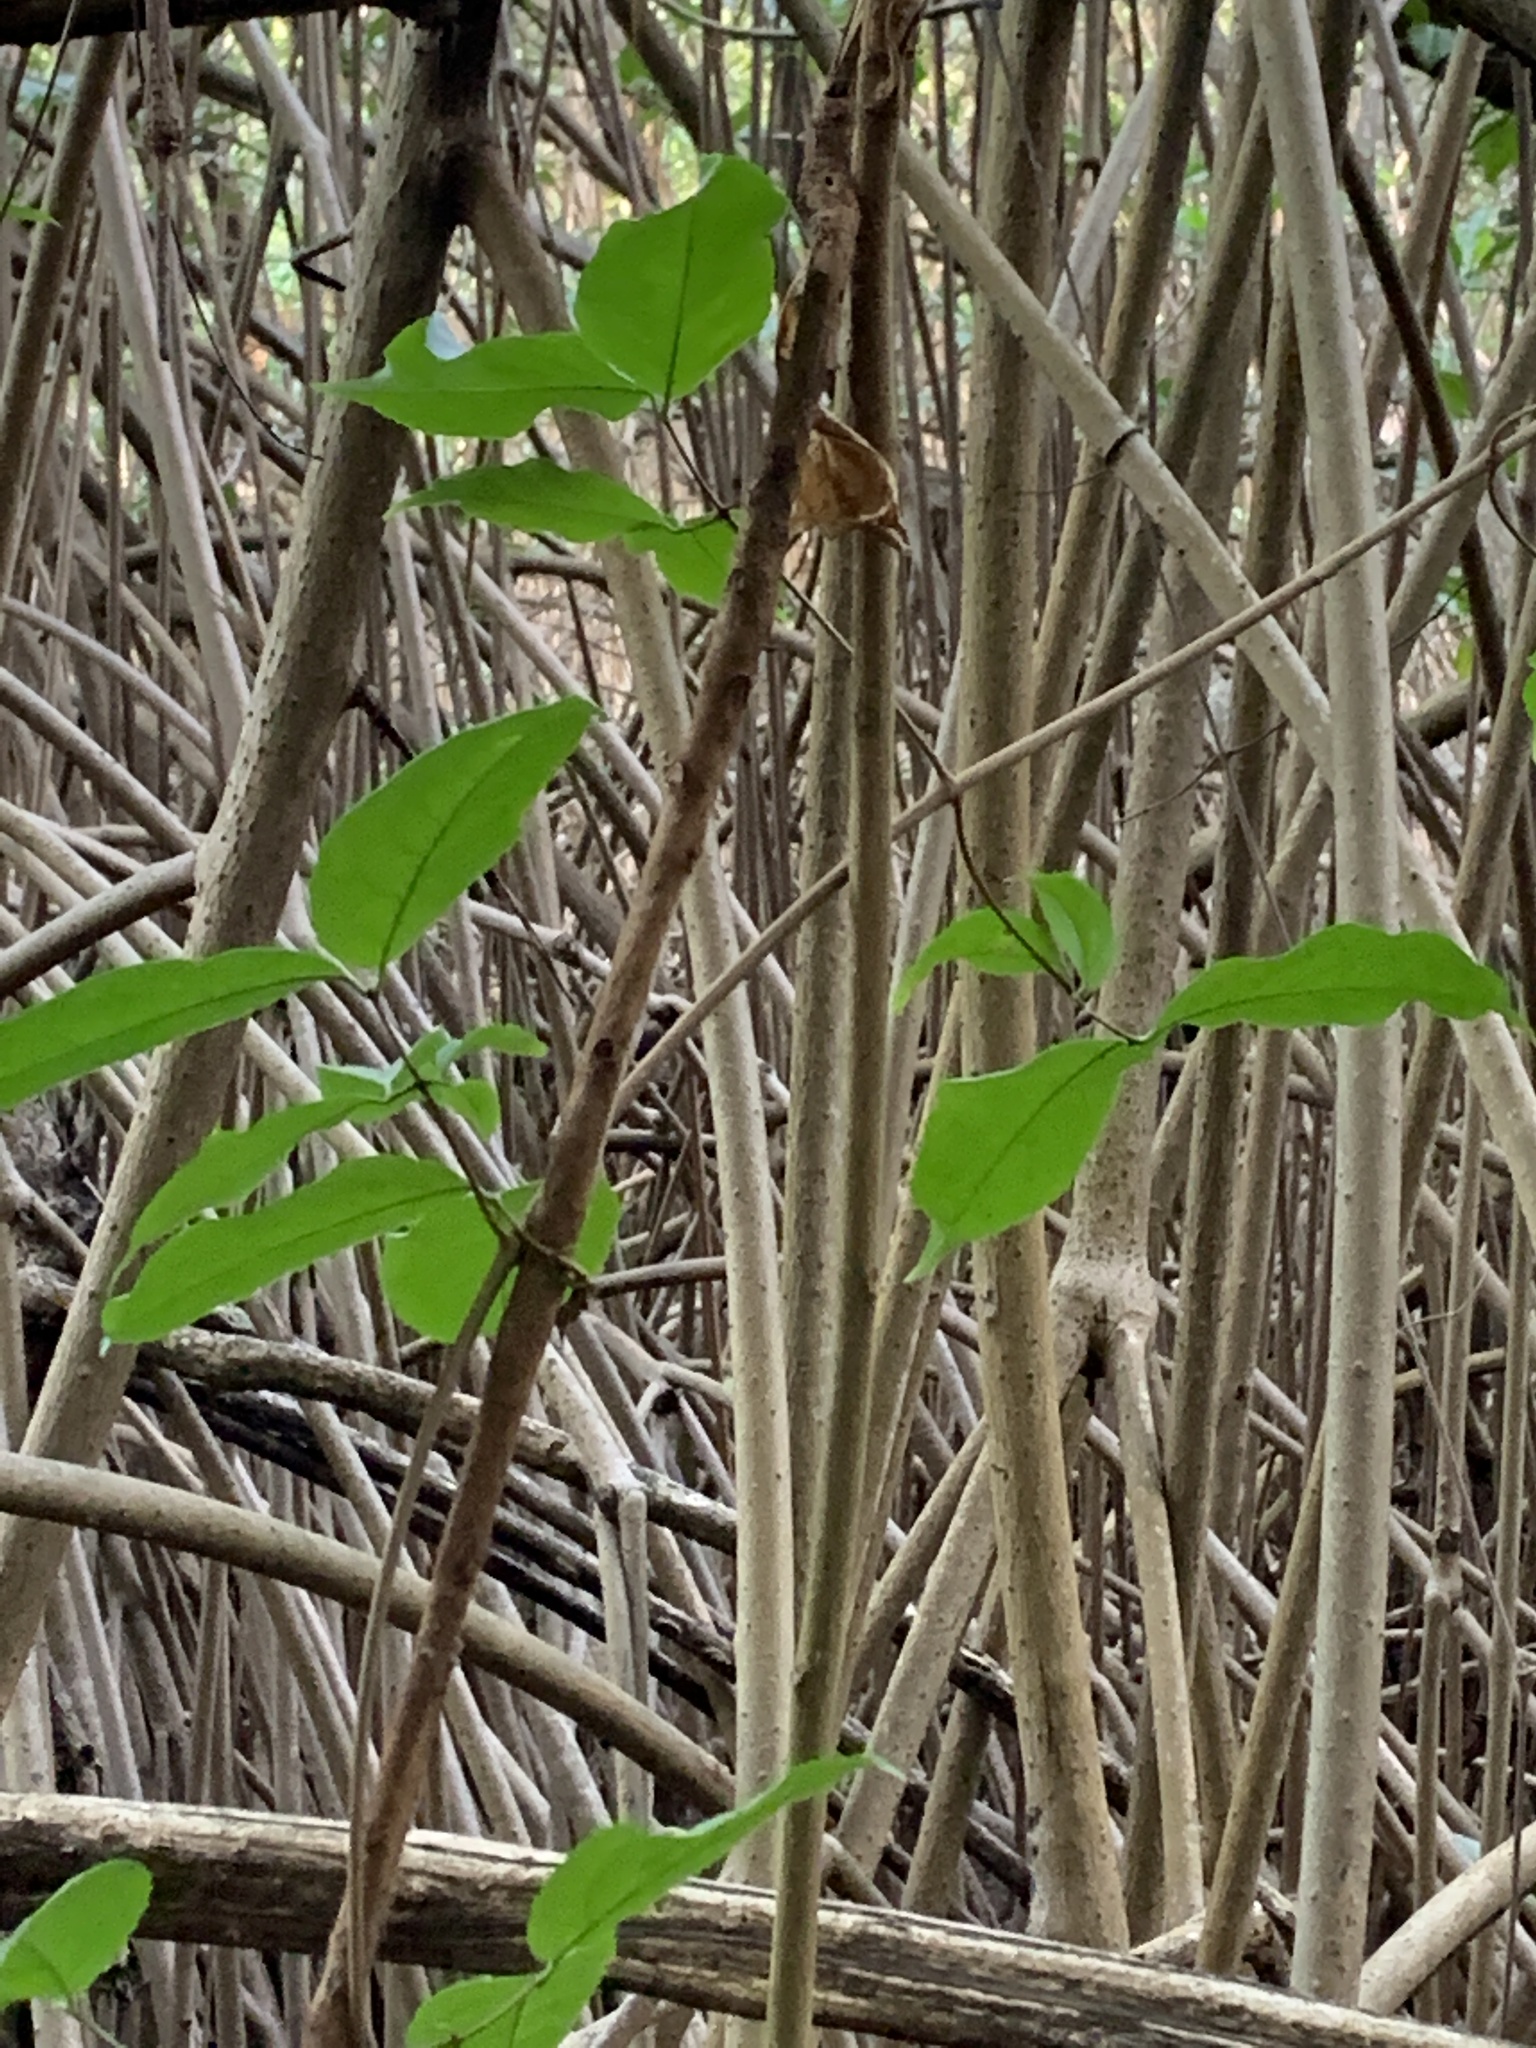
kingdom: Plantae
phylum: Tracheophyta
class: Magnoliopsida
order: Malpighiales
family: Rhizophoraceae
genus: Rhizophora
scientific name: Rhizophora mangle
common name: Red mangrove
